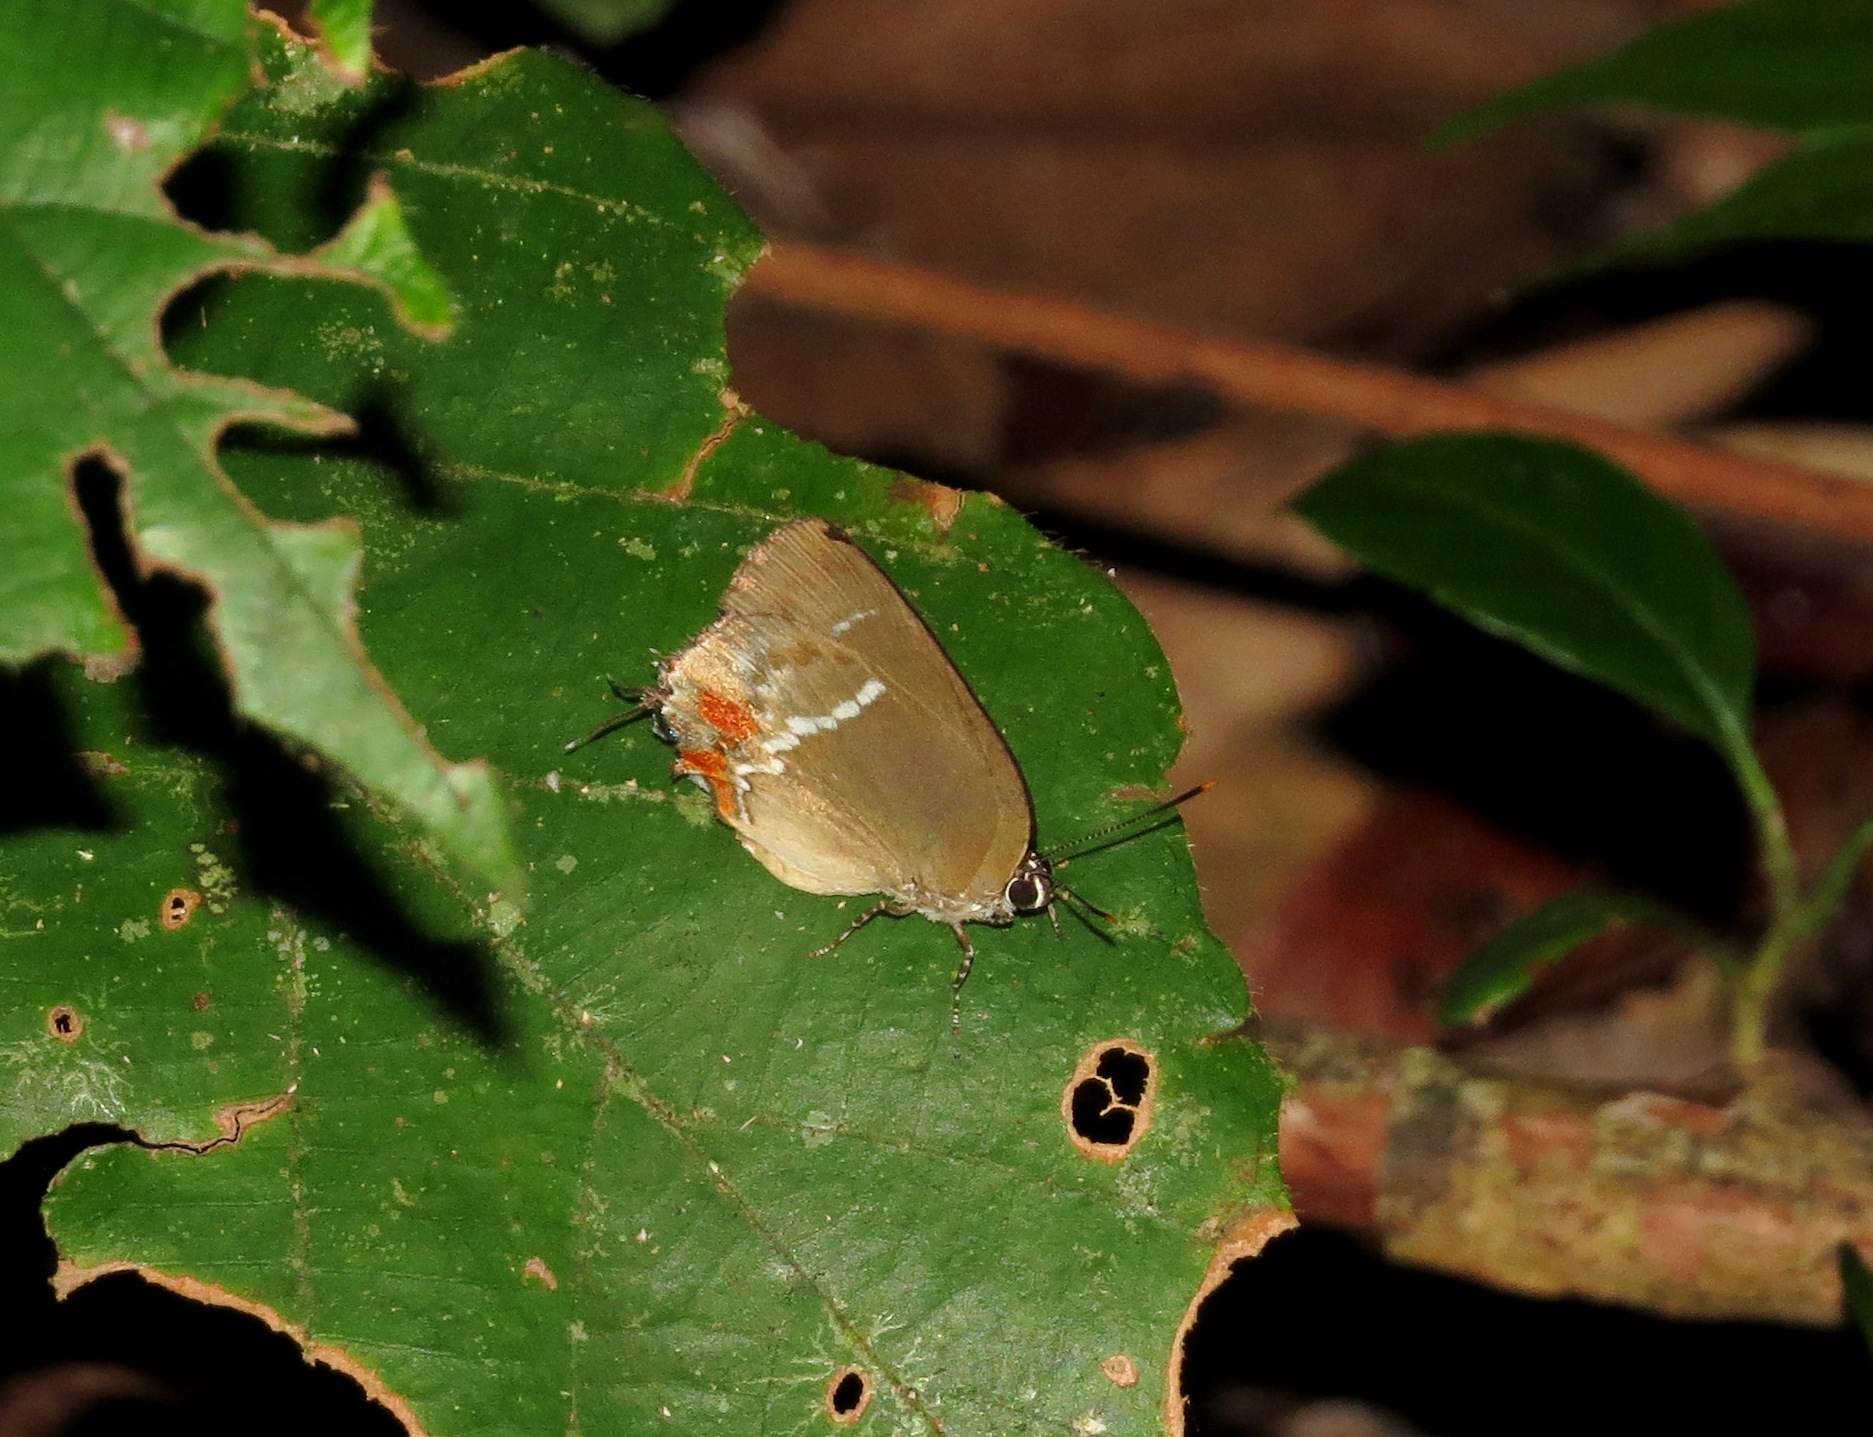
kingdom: Animalia
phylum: Arthropoda
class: Insecta
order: Lepidoptera
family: Lycaenidae
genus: Strephonota
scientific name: Strephonota falsistrephon
